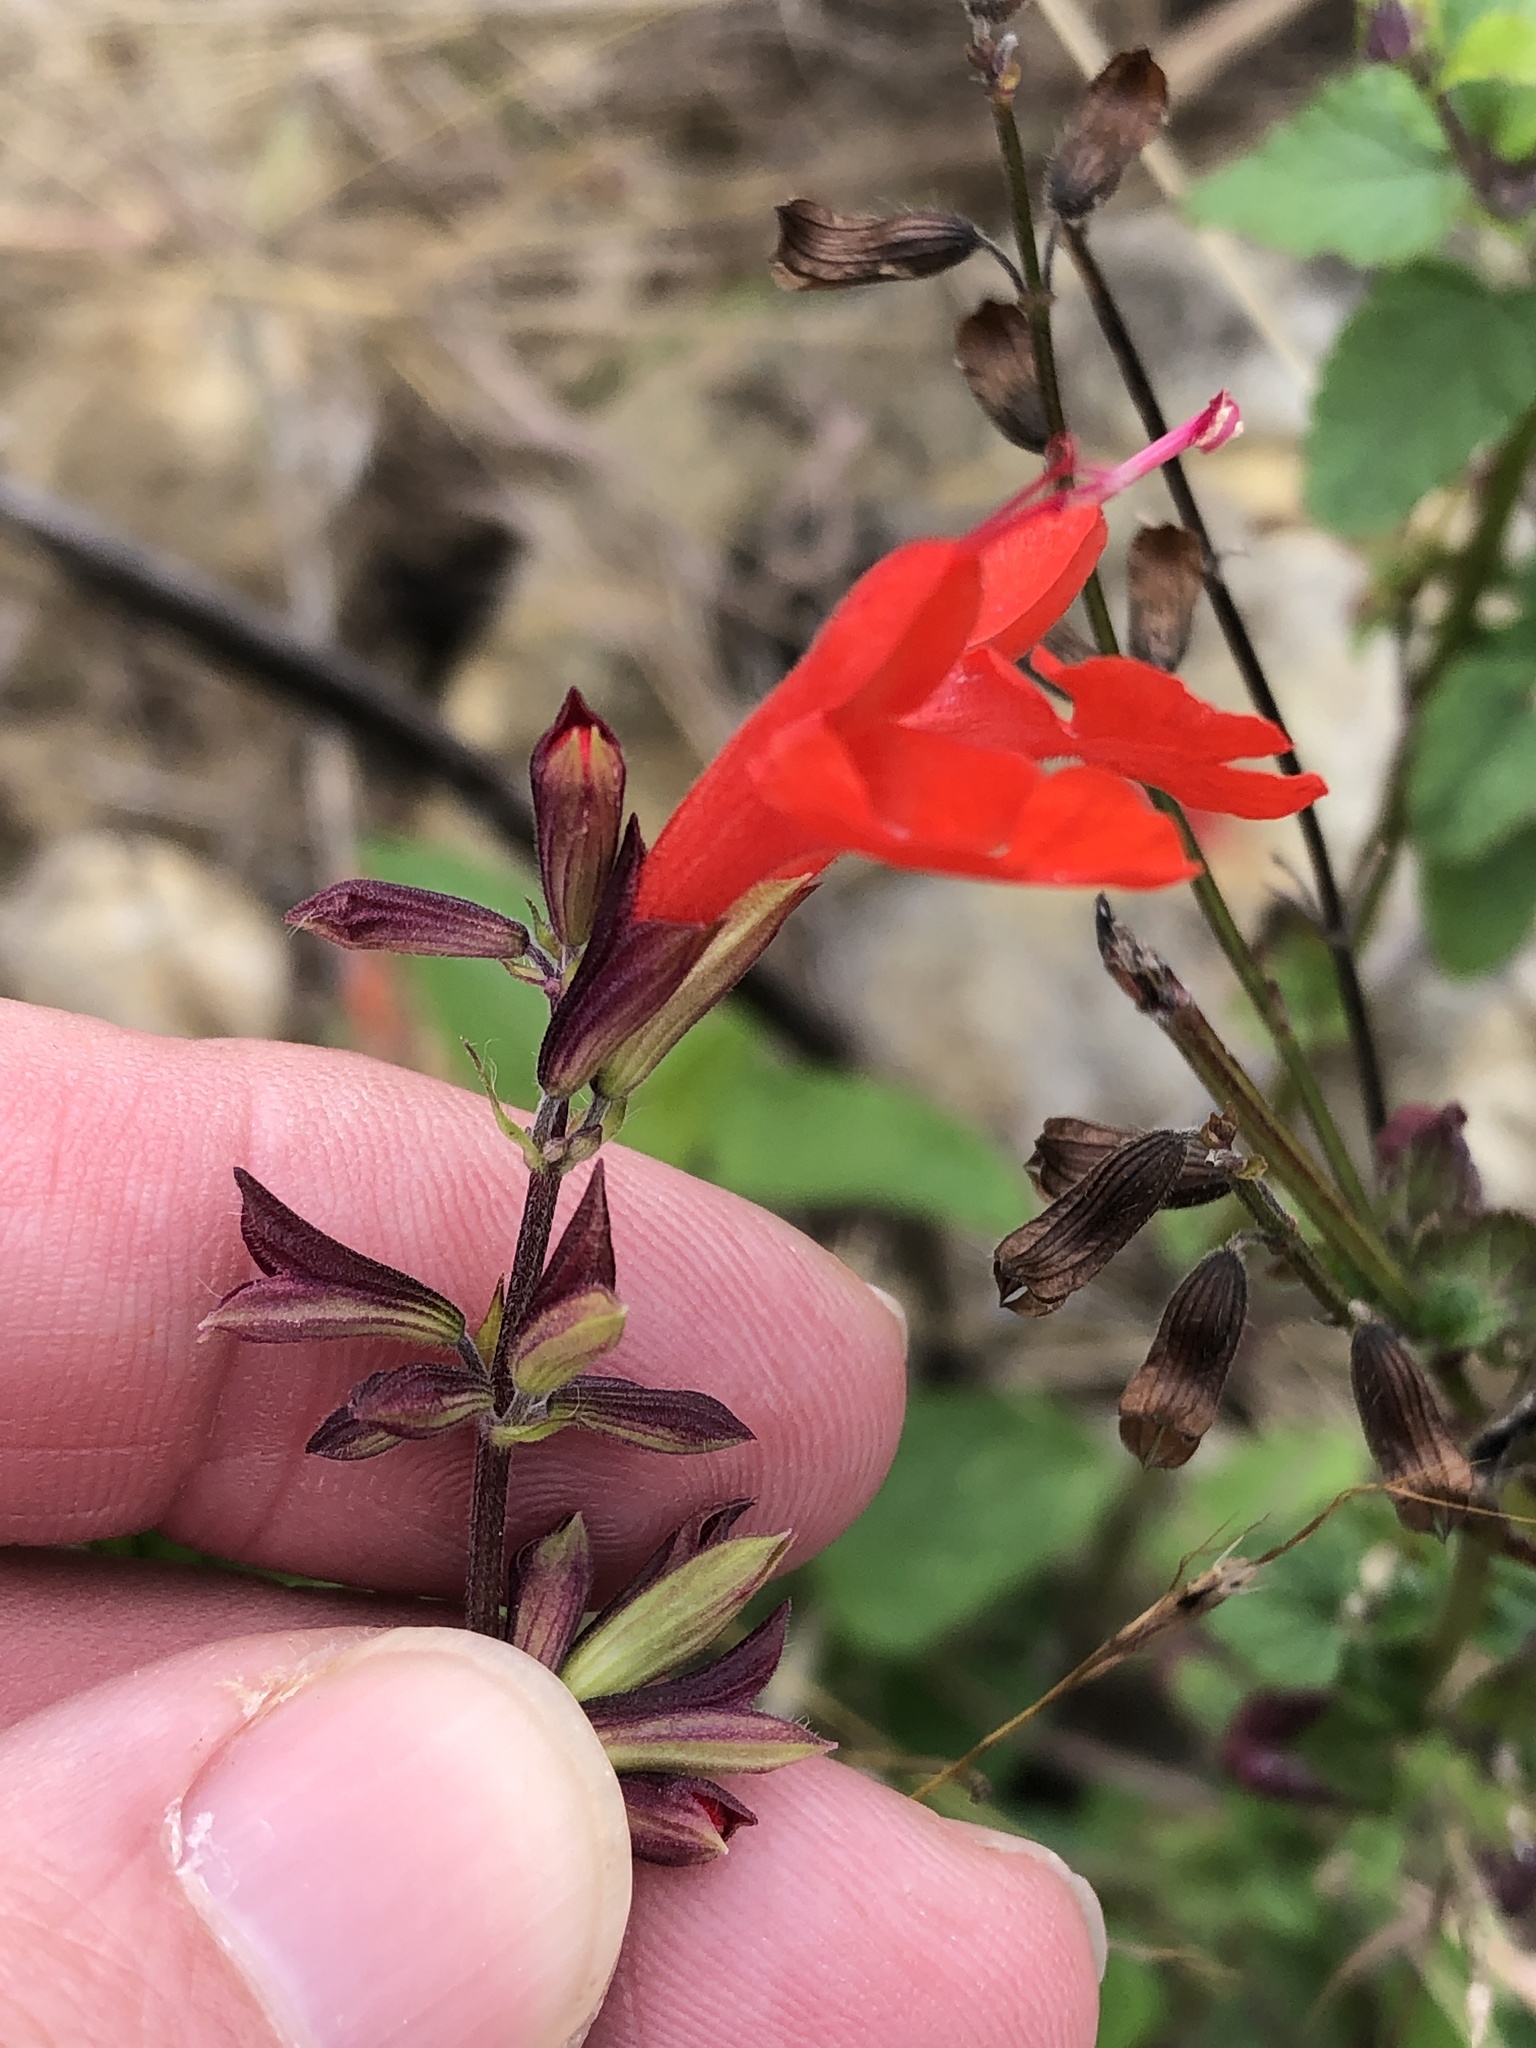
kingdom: Plantae
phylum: Tracheophyta
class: Magnoliopsida
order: Lamiales
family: Lamiaceae
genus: Salvia
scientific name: Salvia coccinea
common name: Blood sage
